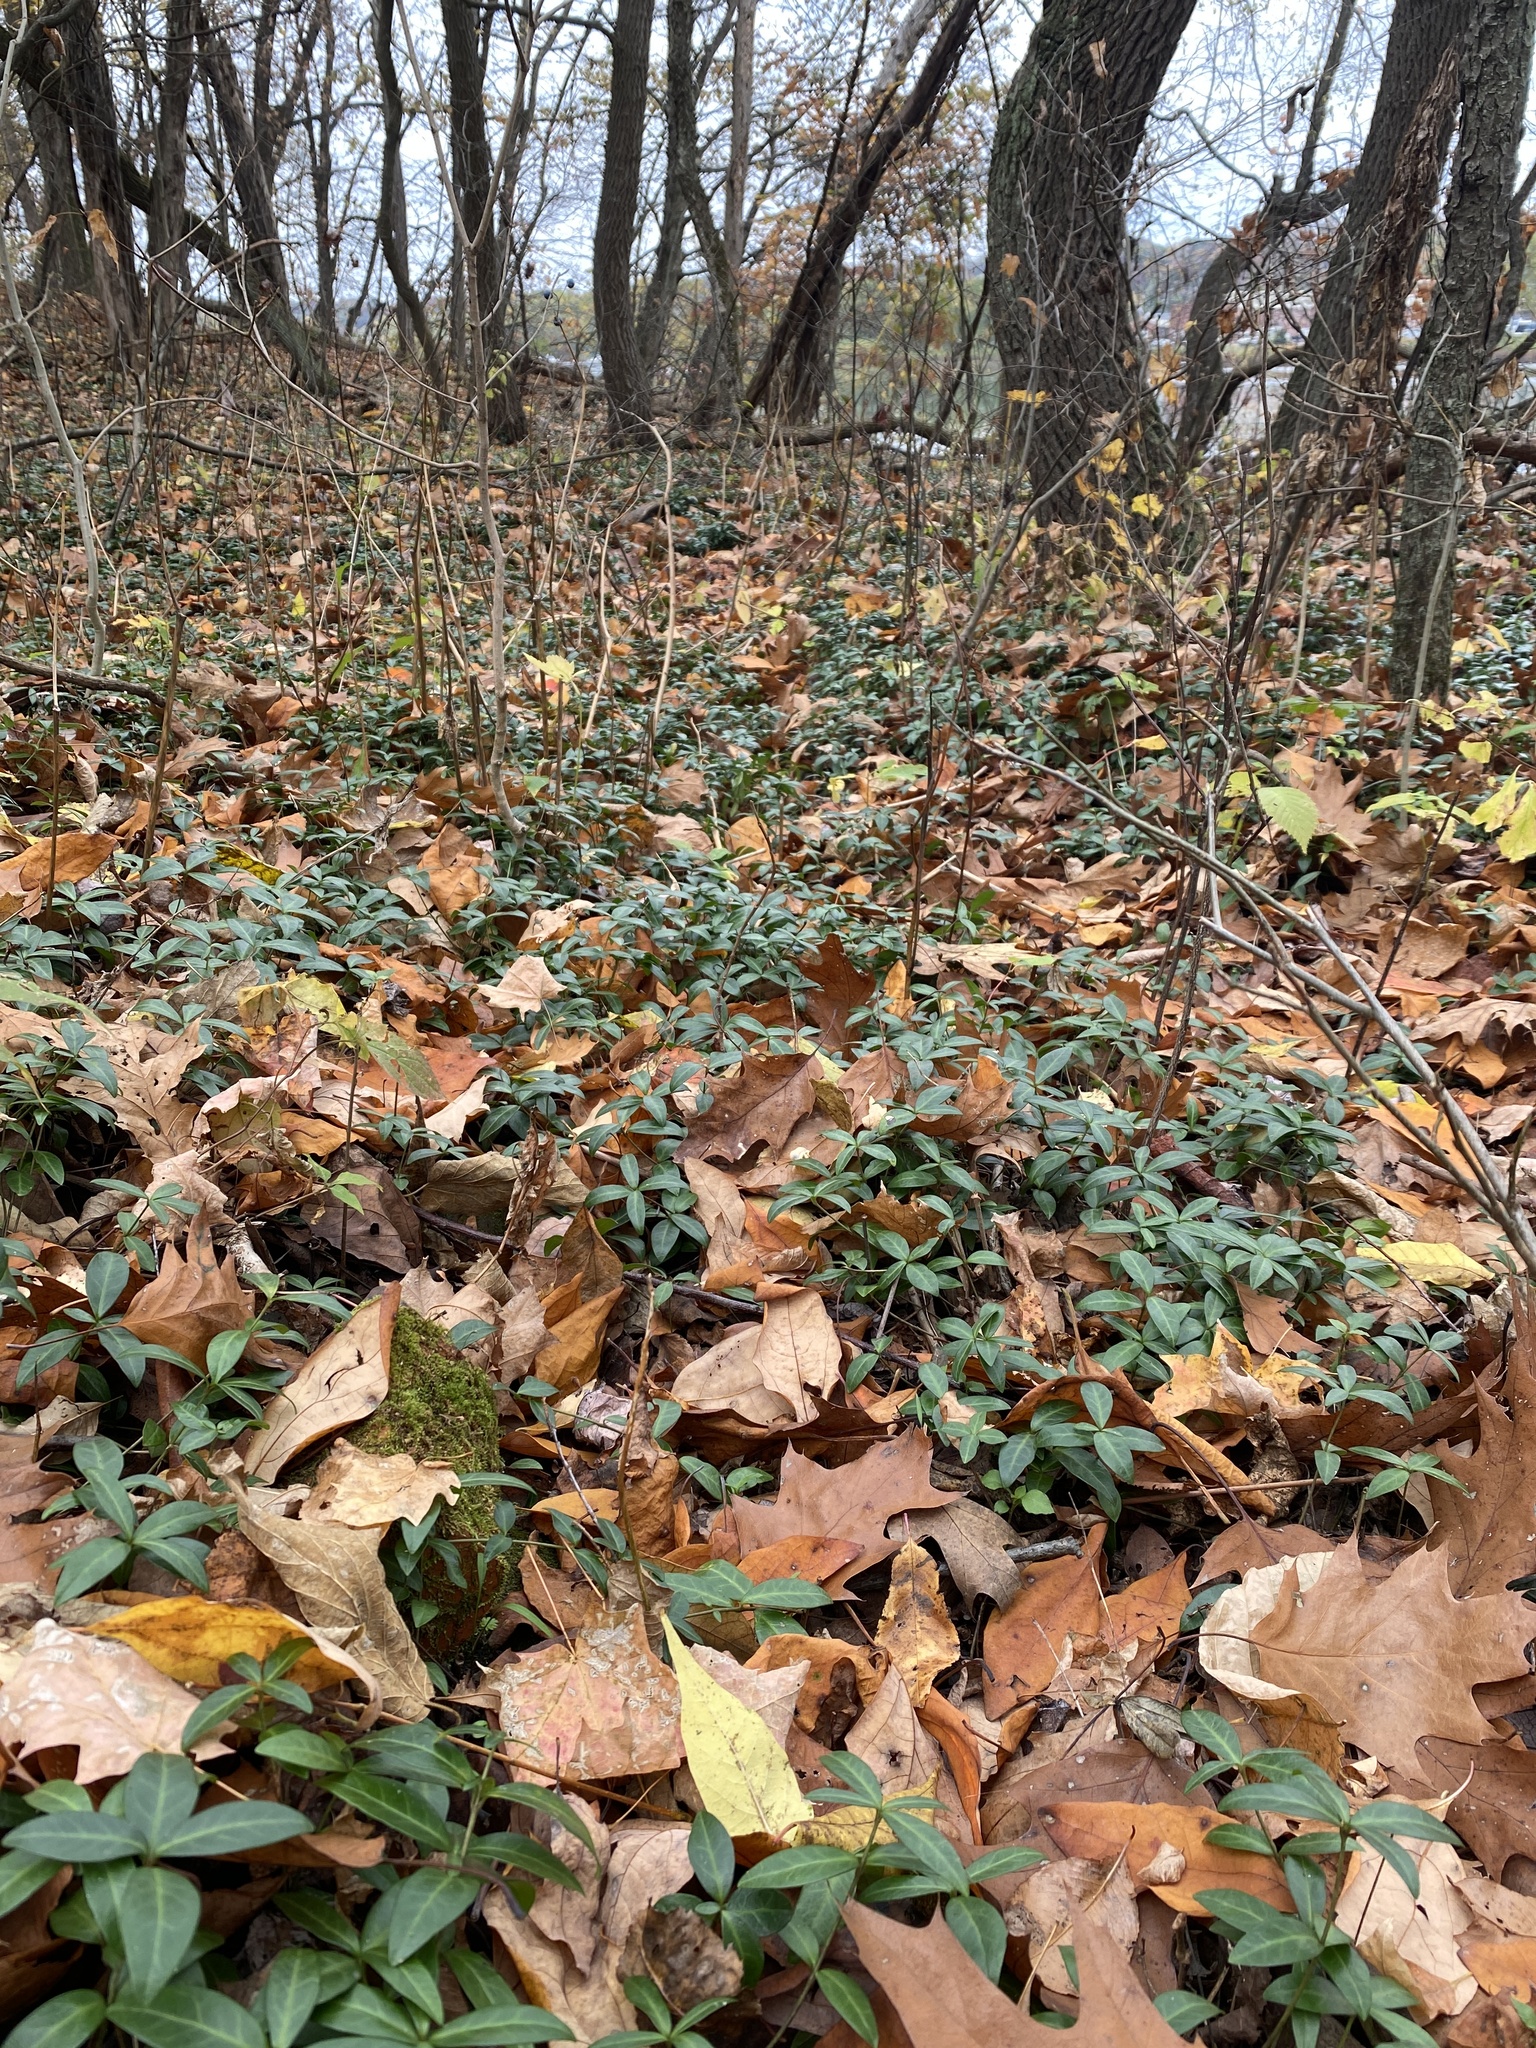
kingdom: Plantae
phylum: Tracheophyta
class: Magnoliopsida
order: Gentianales
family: Apocynaceae
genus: Vinca
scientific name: Vinca minor
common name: Lesser periwinkle
